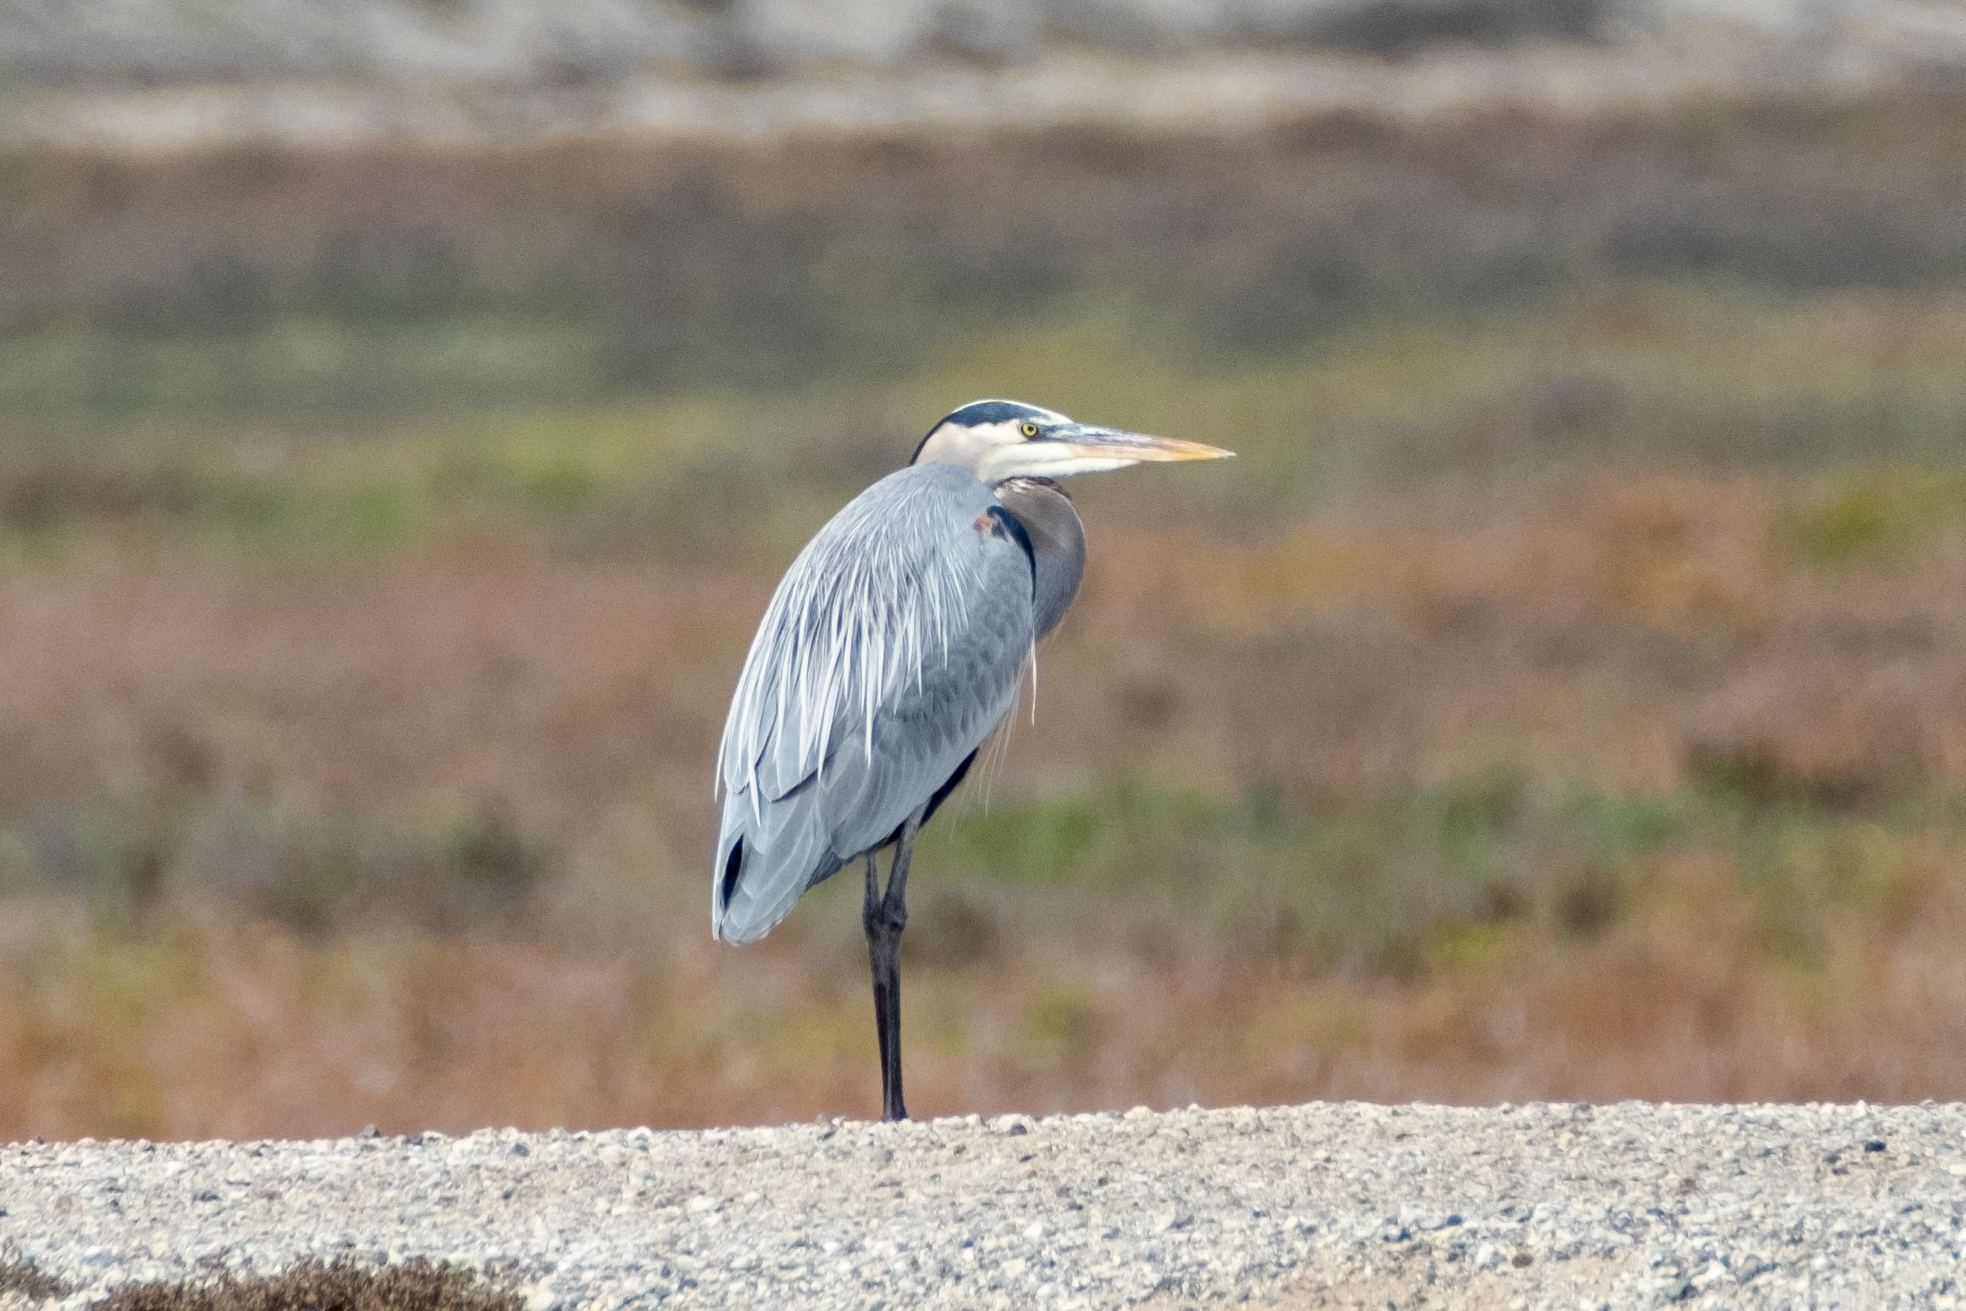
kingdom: Animalia
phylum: Chordata
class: Aves
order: Pelecaniformes
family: Ardeidae
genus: Ardea
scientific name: Ardea herodias
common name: Great blue heron
